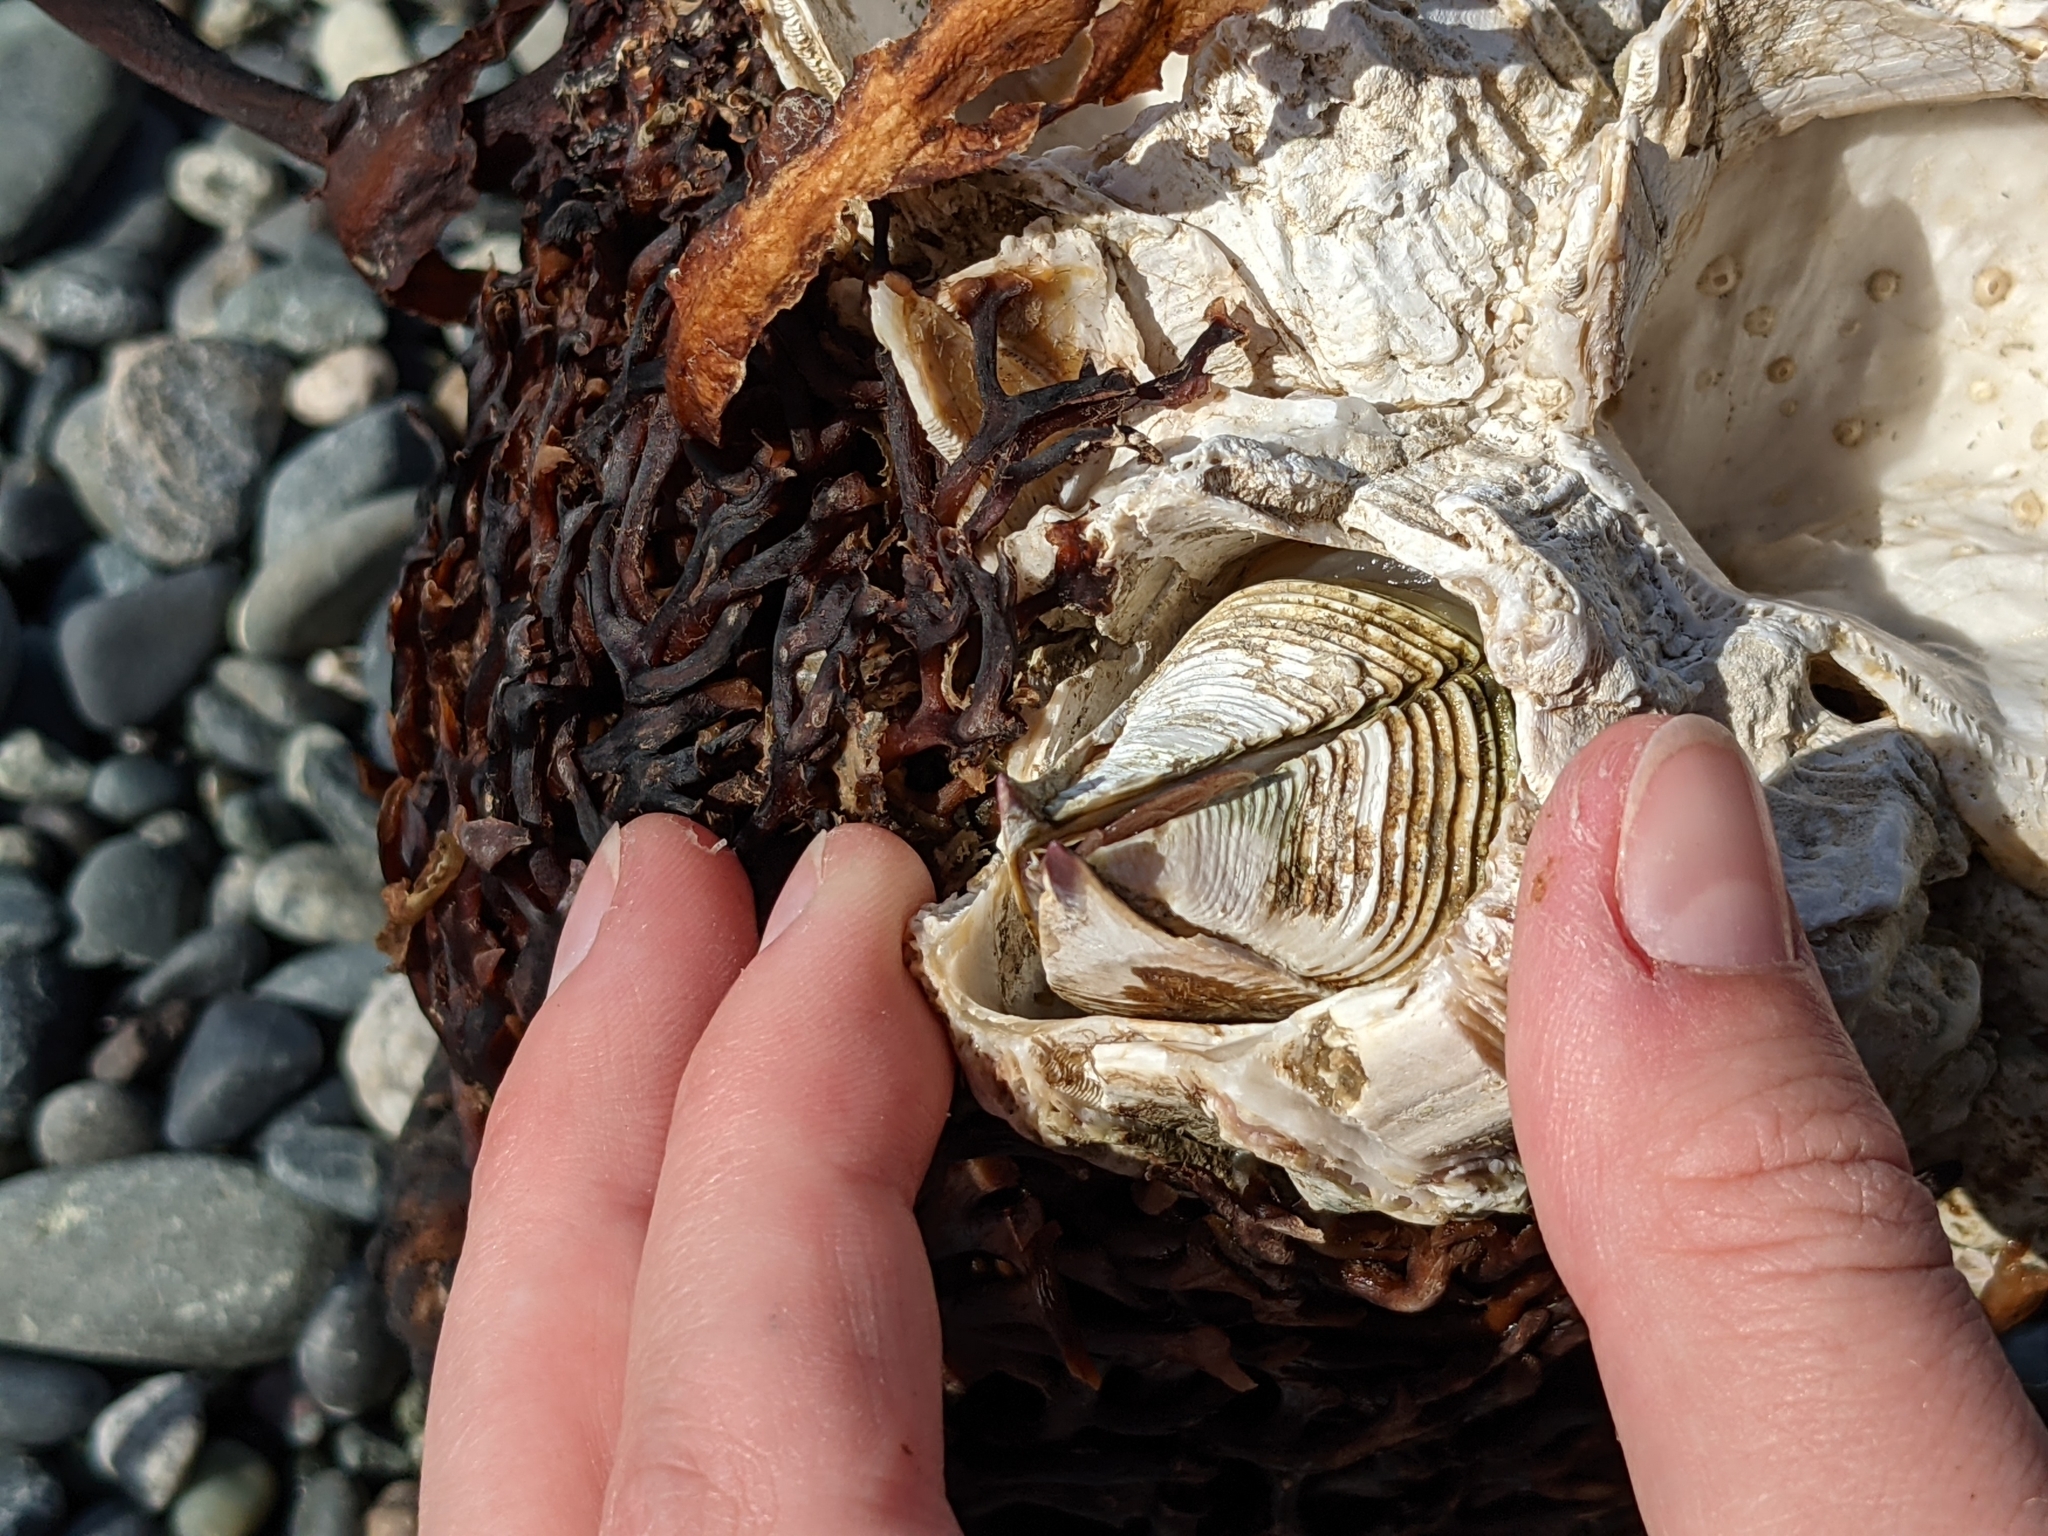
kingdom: Animalia
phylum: Arthropoda
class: Maxillopoda
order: Sessilia
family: Balanidae
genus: Balanus
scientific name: Balanus nubilus
